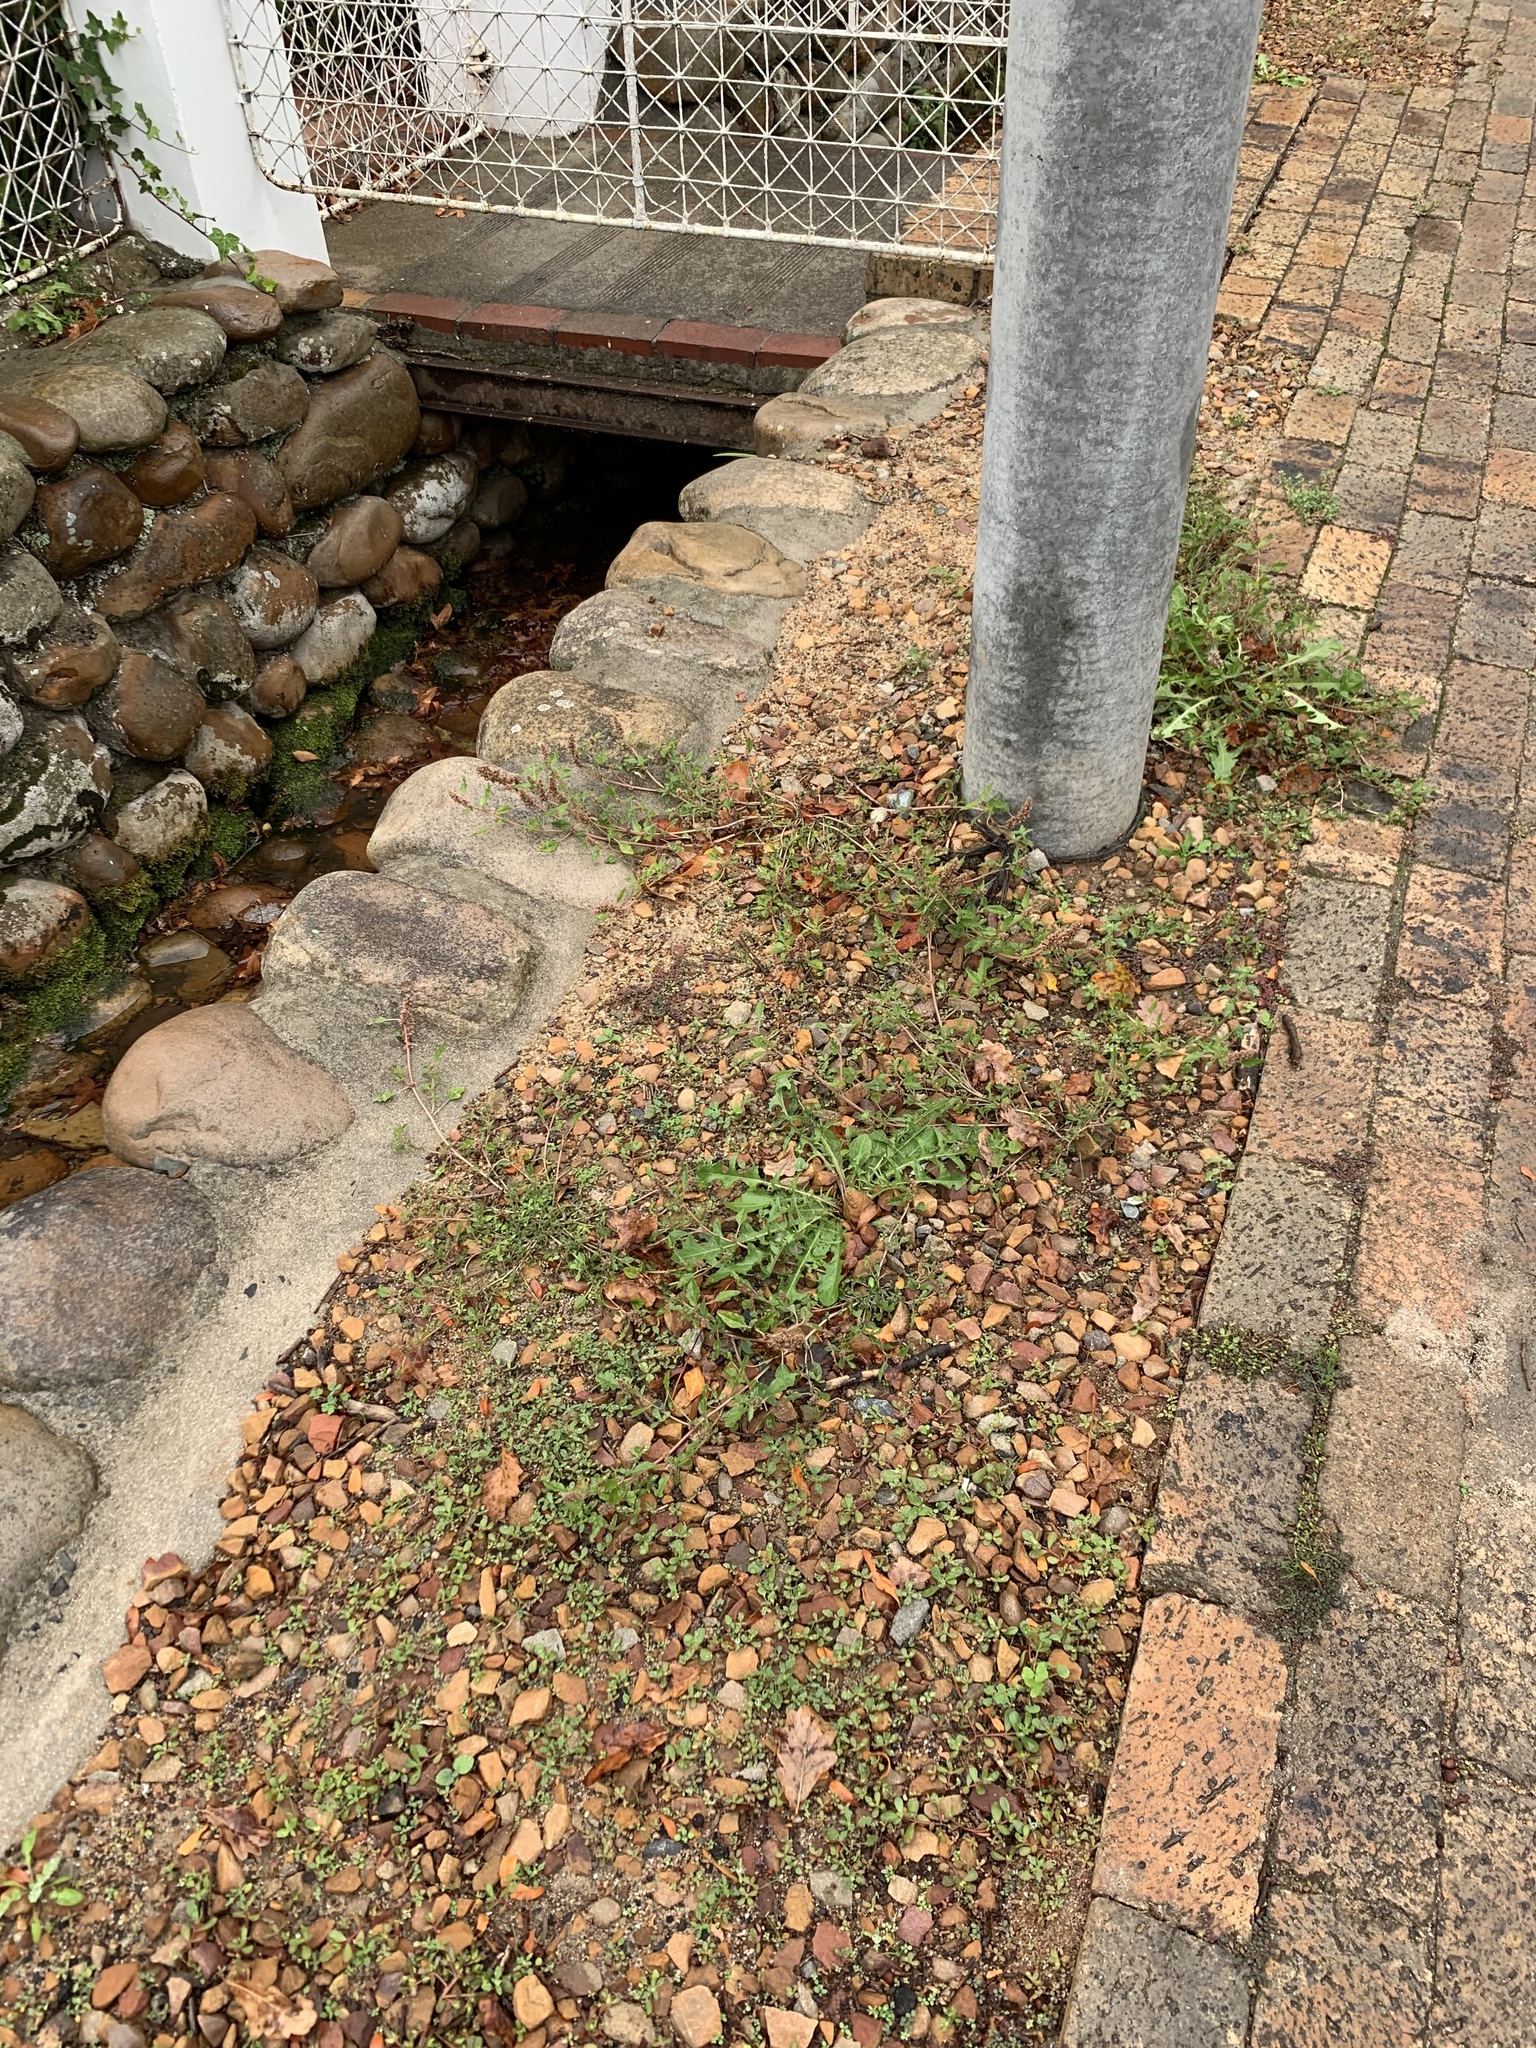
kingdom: Plantae
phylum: Tracheophyta
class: Magnoliopsida
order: Caryophyllales
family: Amaranthaceae
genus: Amaranthus
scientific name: Amaranthus deflexus
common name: Perennial pigweed
